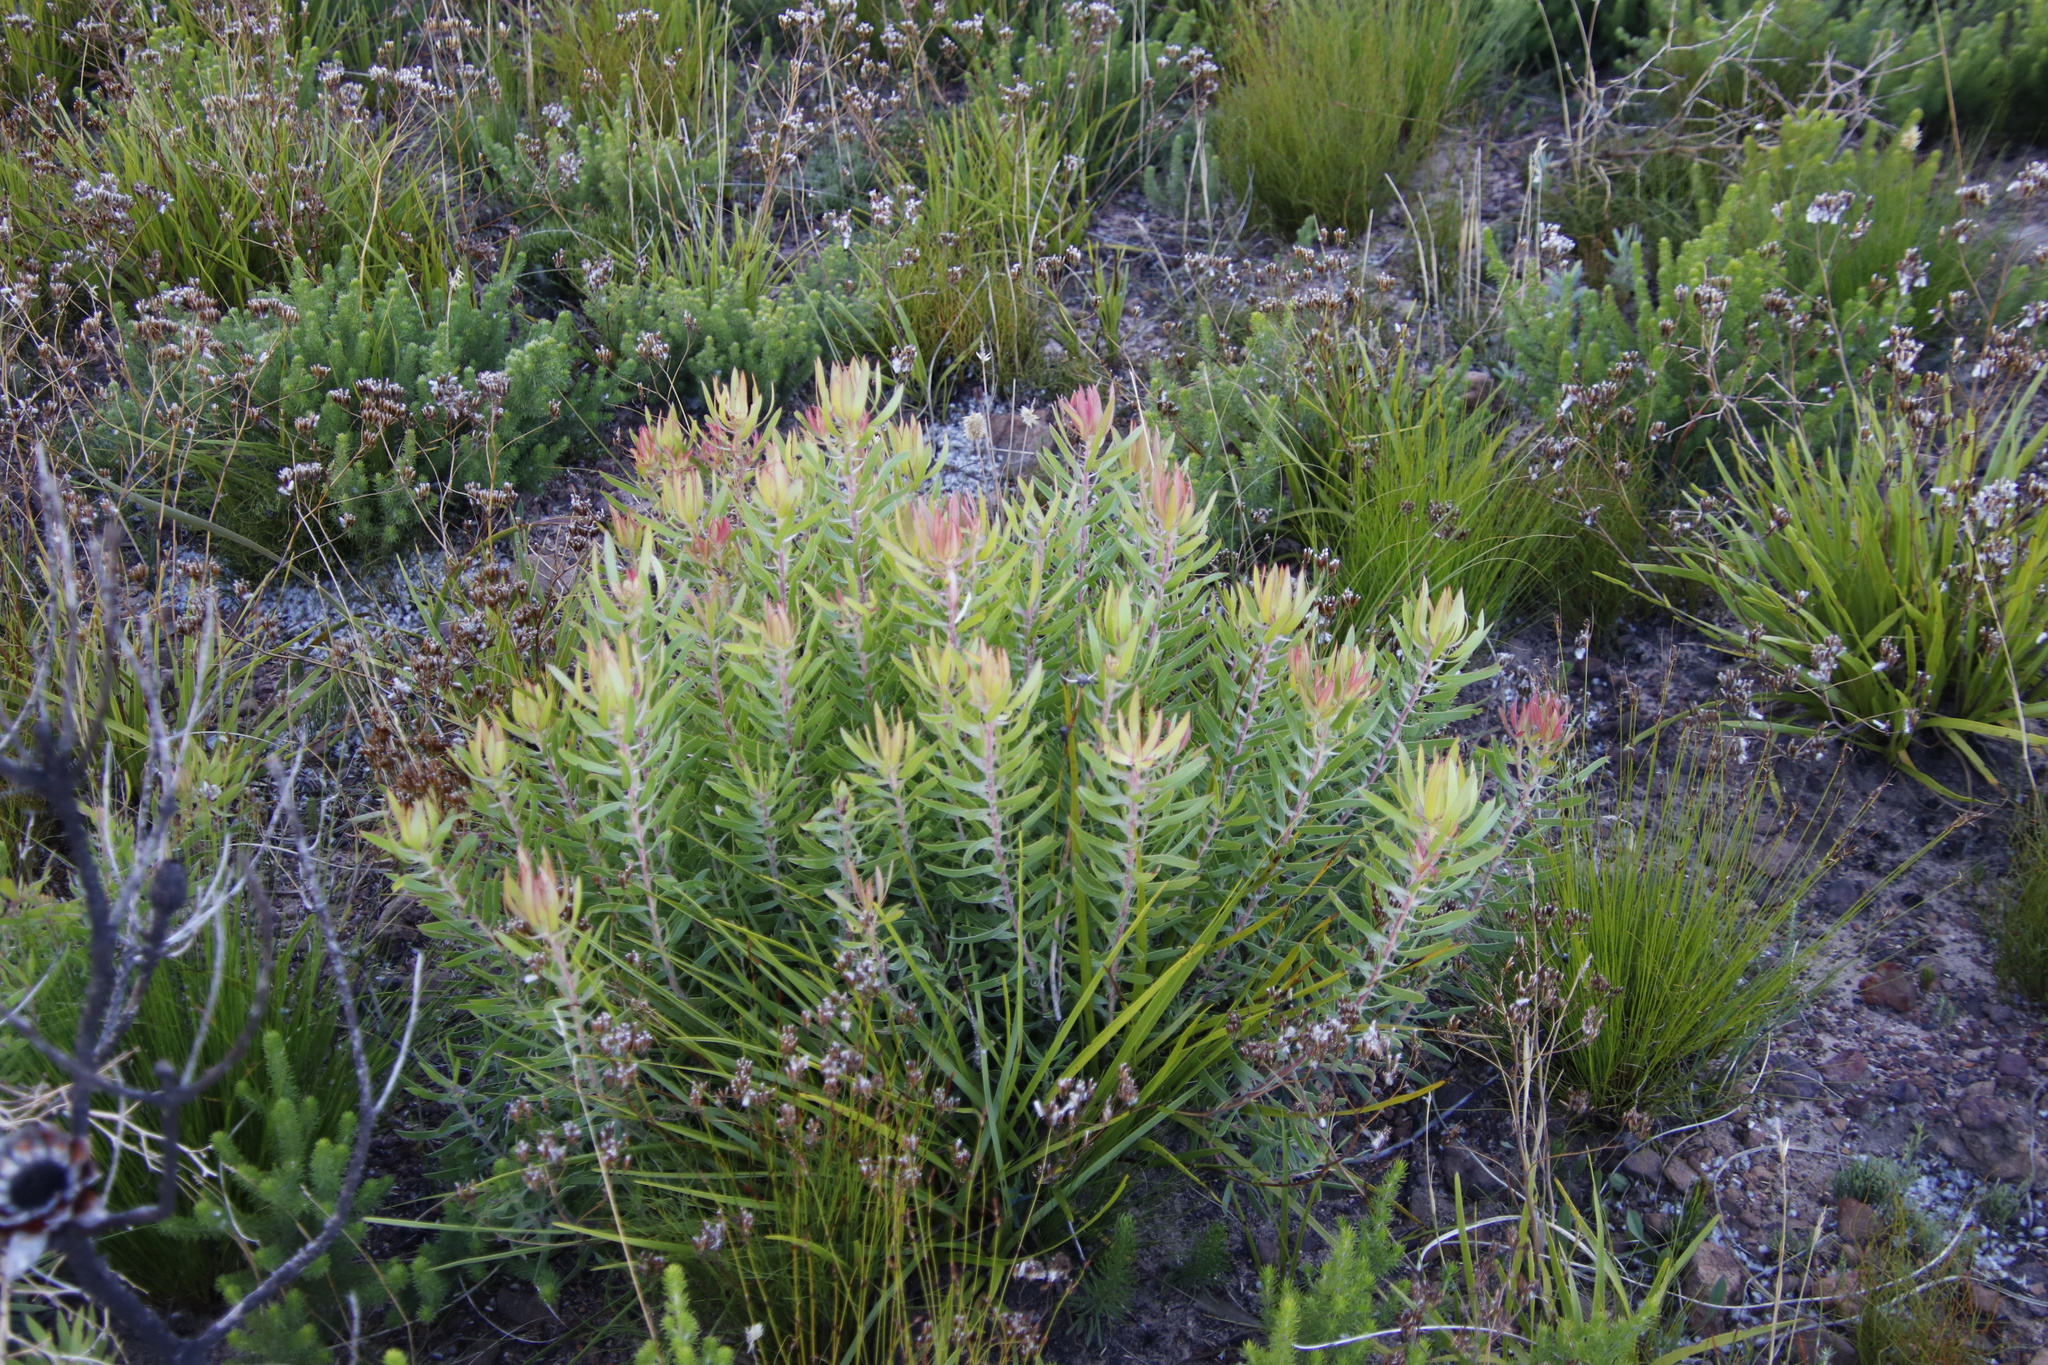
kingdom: Plantae
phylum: Tracheophyta
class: Magnoliopsida
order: Proteales
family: Proteaceae
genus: Leucadendron
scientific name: Leucadendron spissifolium
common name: Spear-leaf conebush
